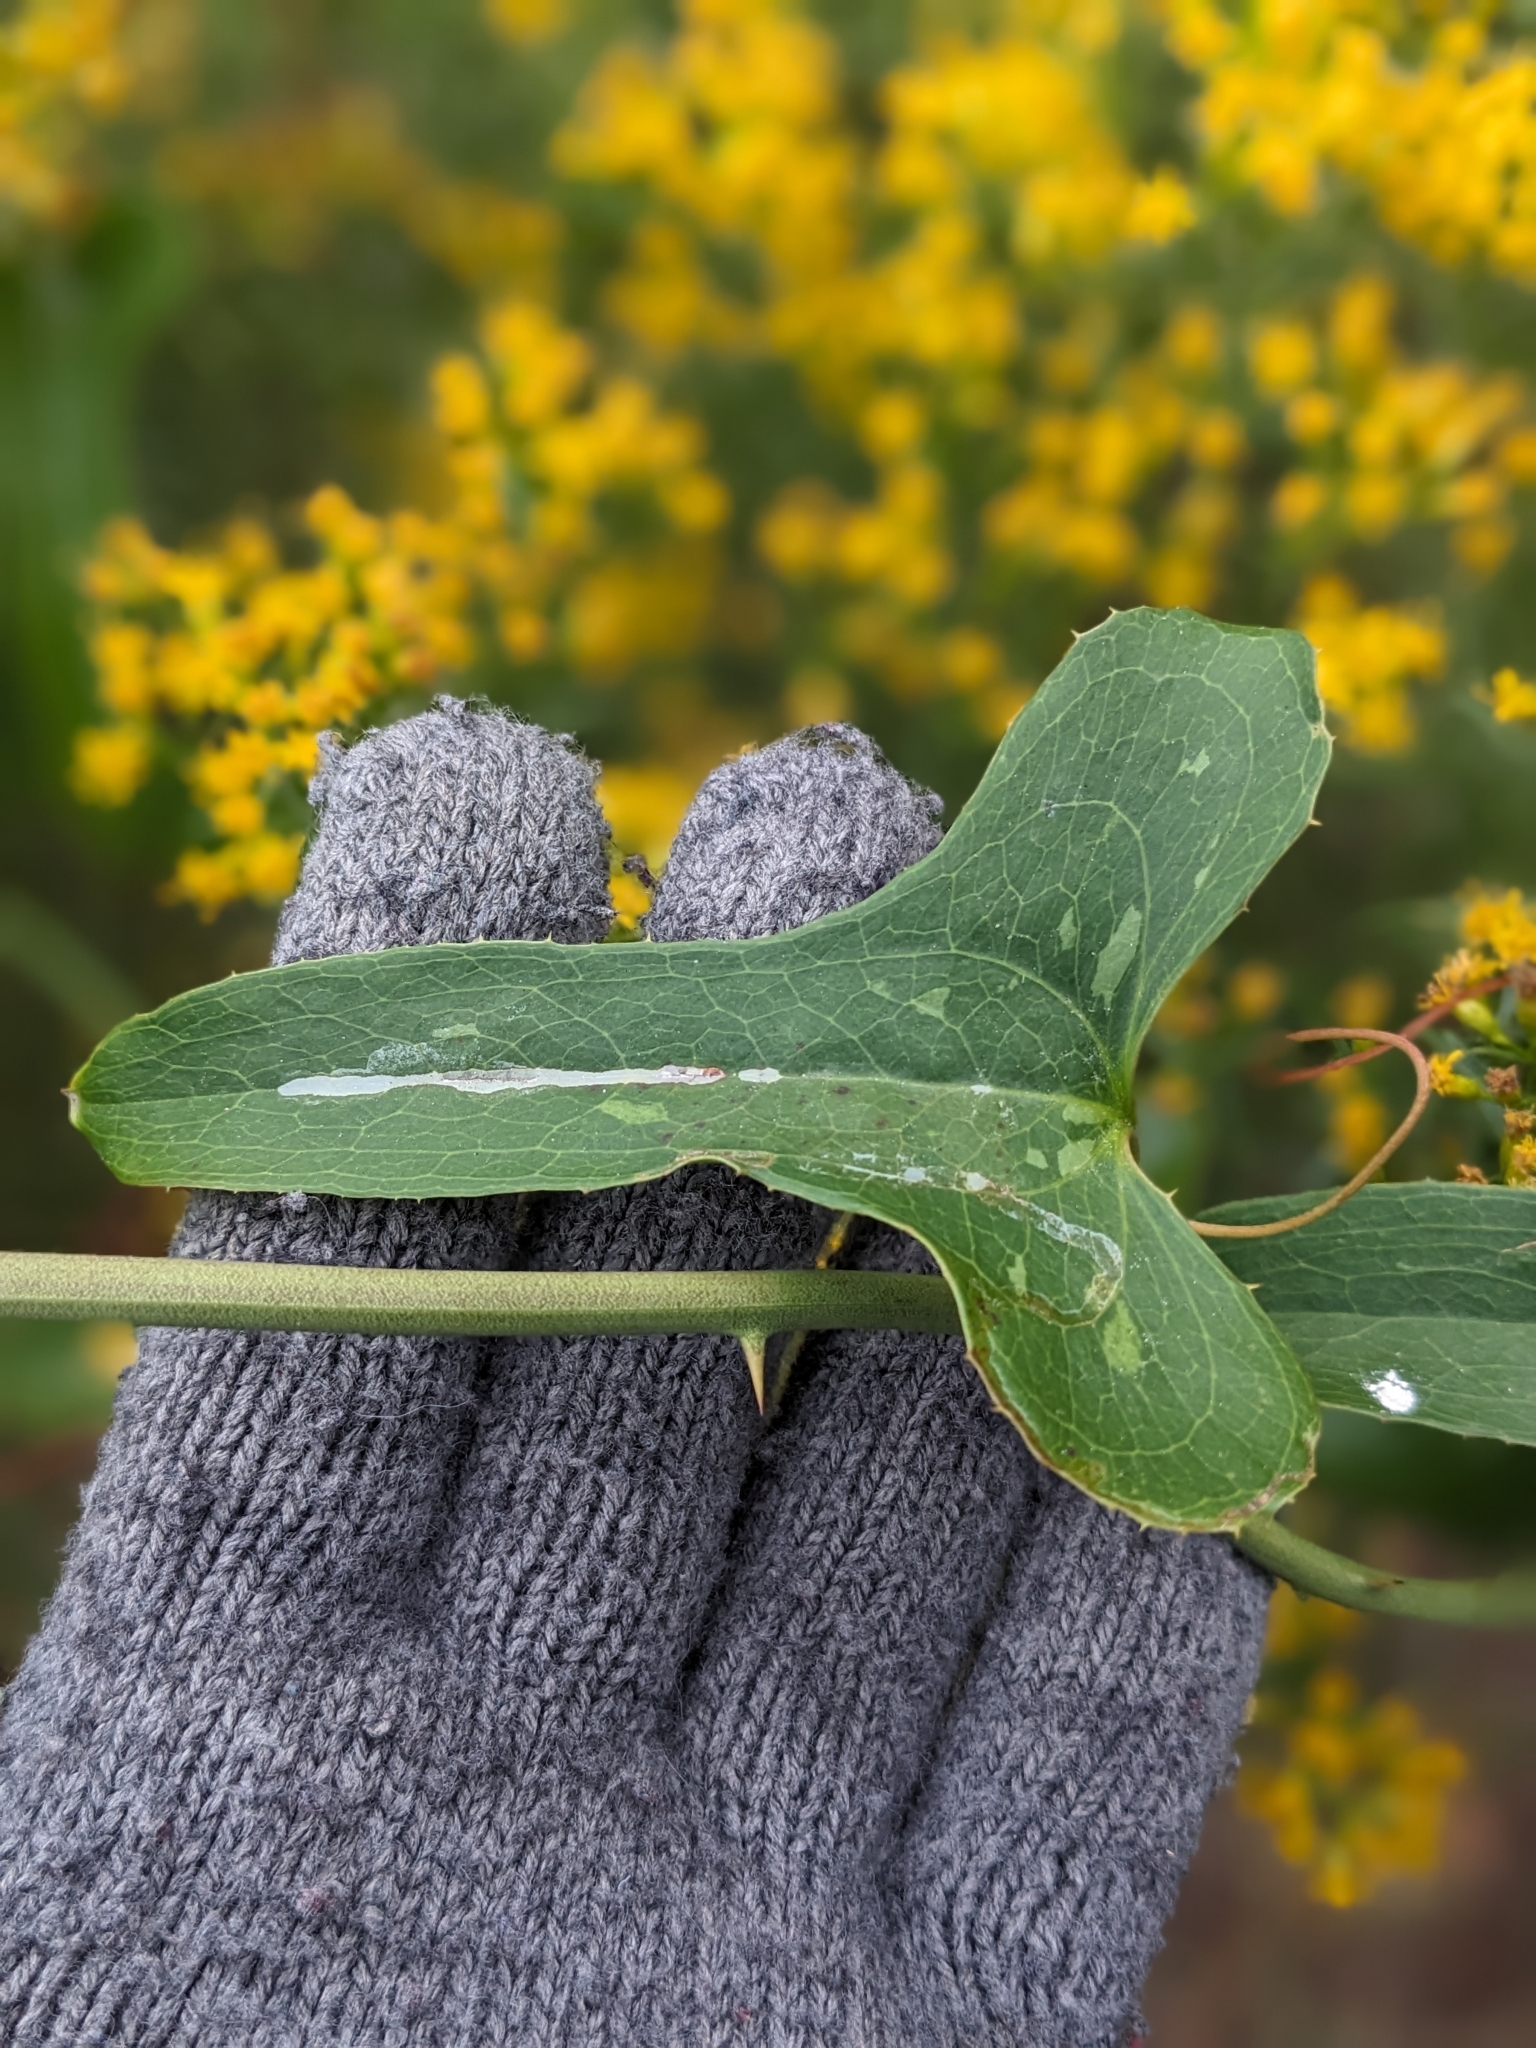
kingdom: Plantae
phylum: Tracheophyta
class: Liliopsida
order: Liliales
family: Smilacaceae
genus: Smilax
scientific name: Smilax bona-nox
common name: Catbrier
